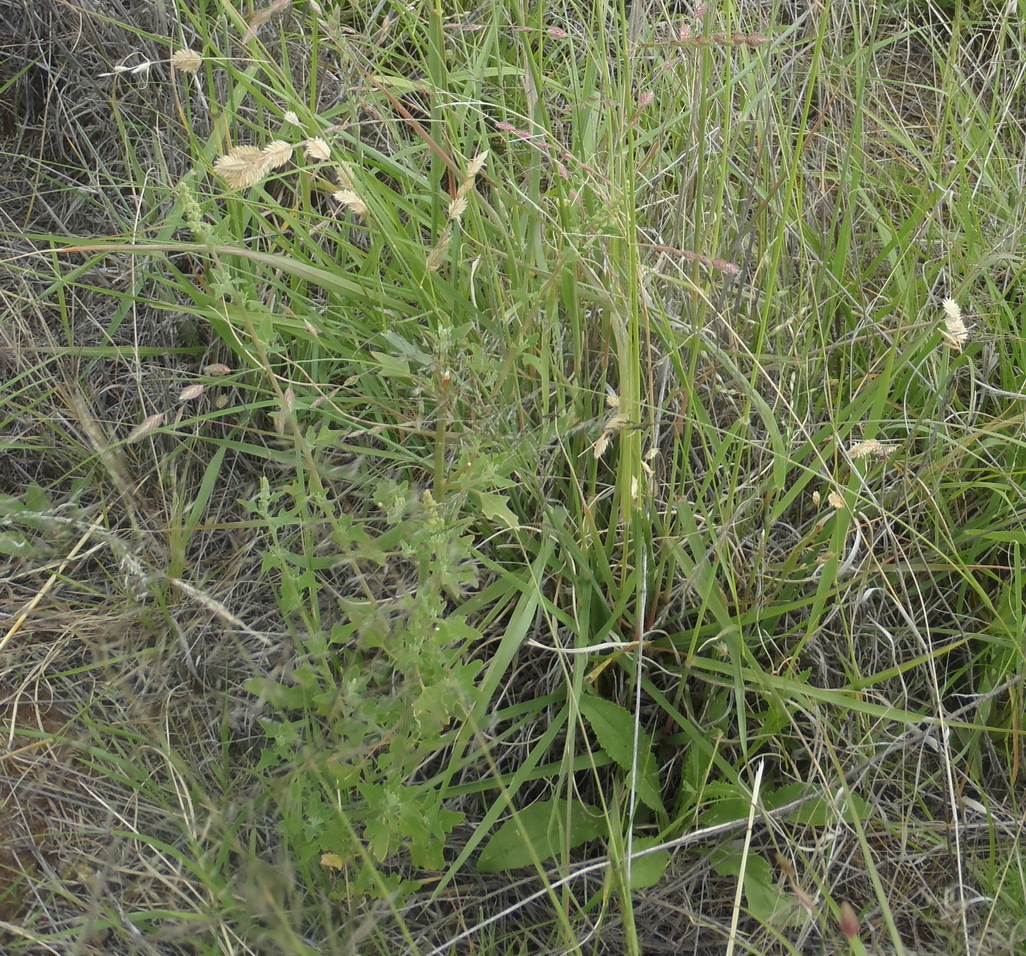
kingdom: Plantae
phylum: Tracheophyta
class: Liliopsida
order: Poales
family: Poaceae
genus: Eragrostis
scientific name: Eragrostis superba
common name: Wilman lovegrass
